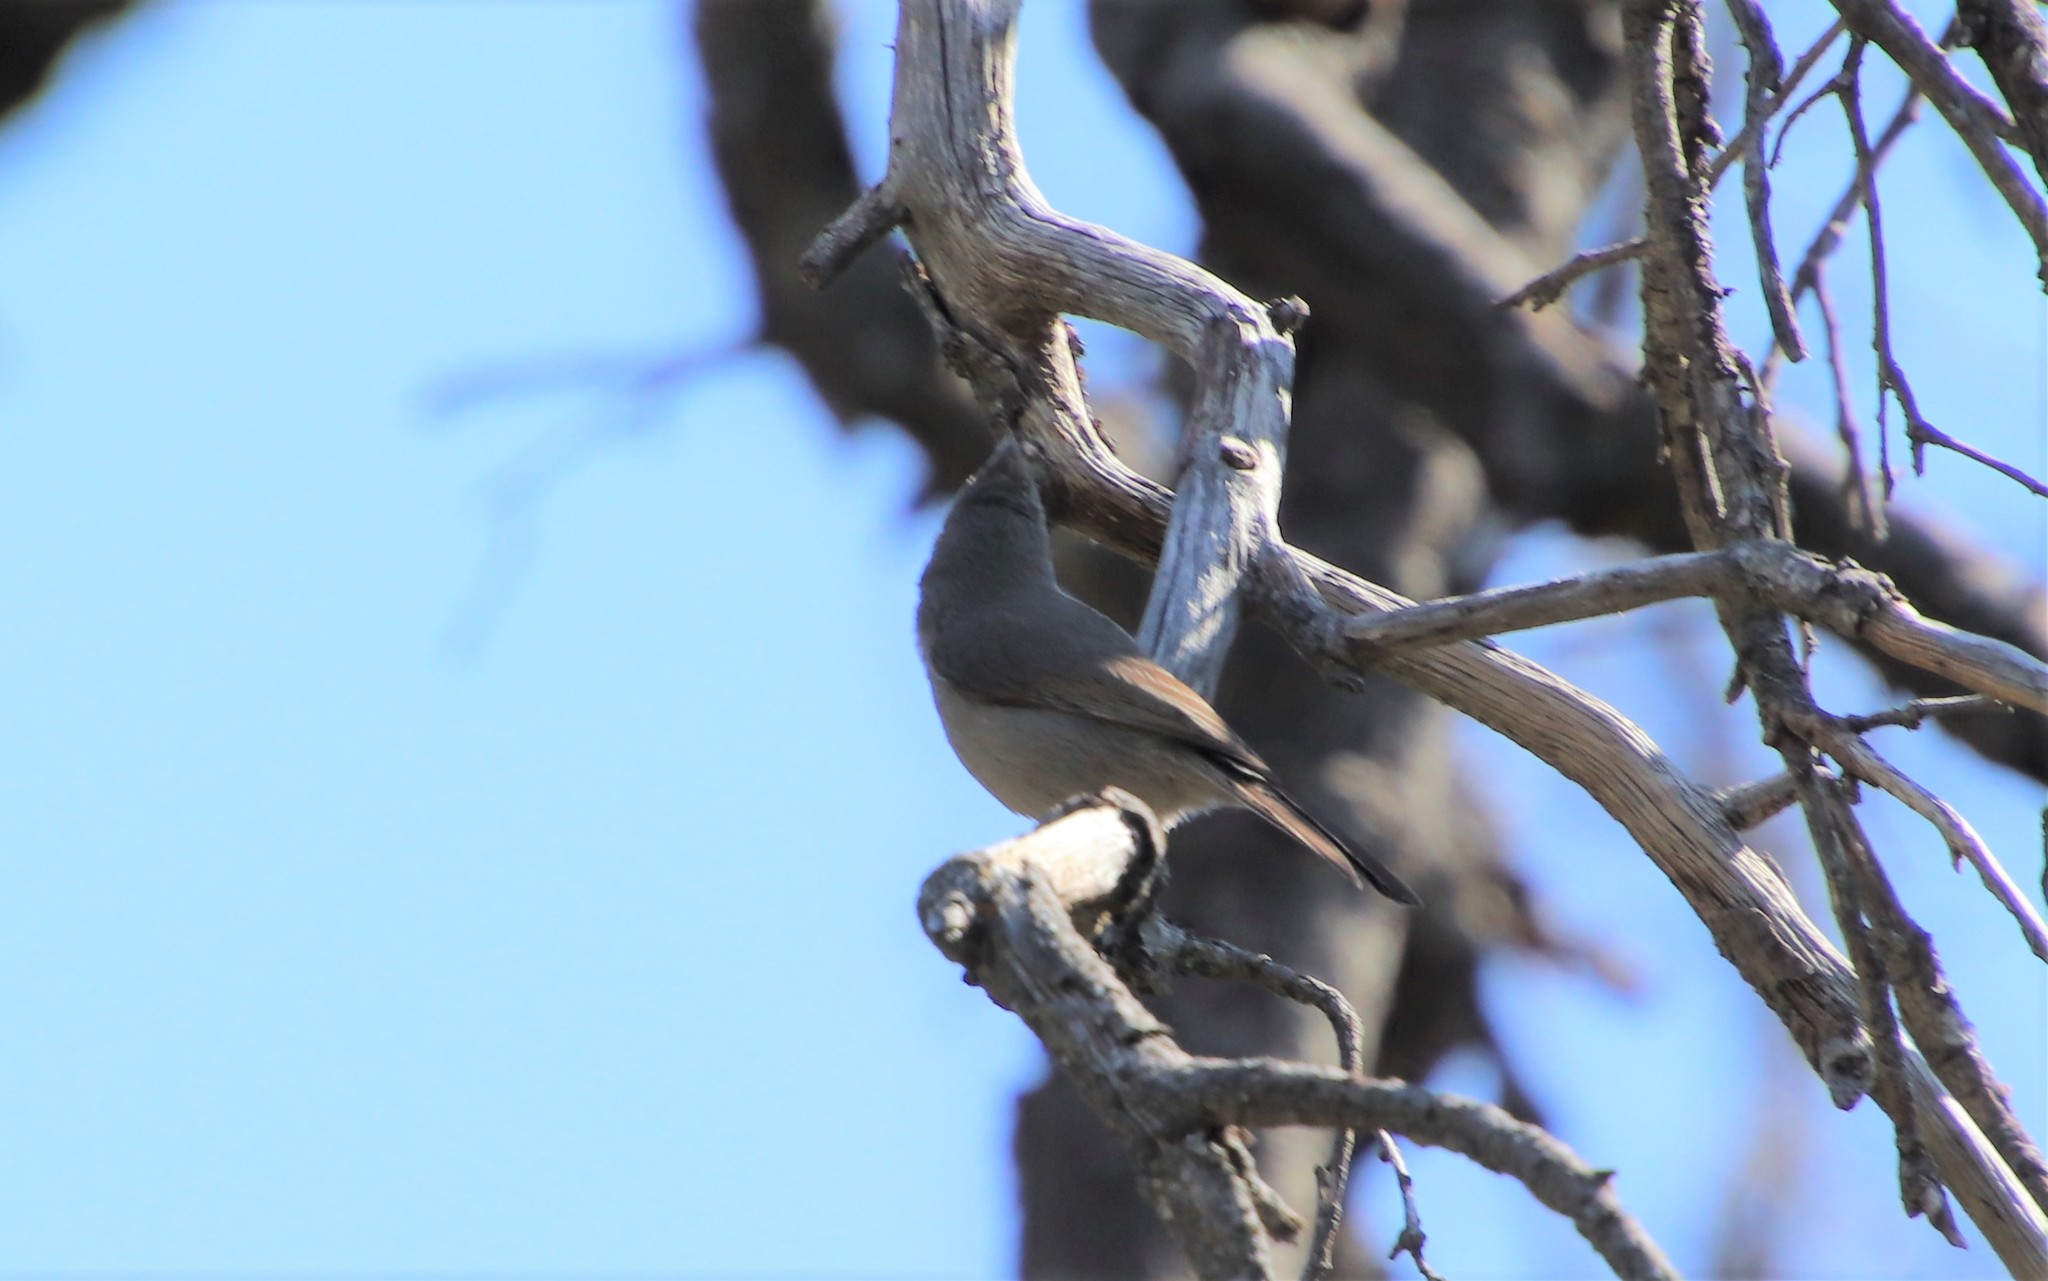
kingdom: Animalia
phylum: Chordata
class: Aves
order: Passeriformes
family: Paridae
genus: Baeolophus
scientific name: Baeolophus inornatus
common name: Oak titmouse
